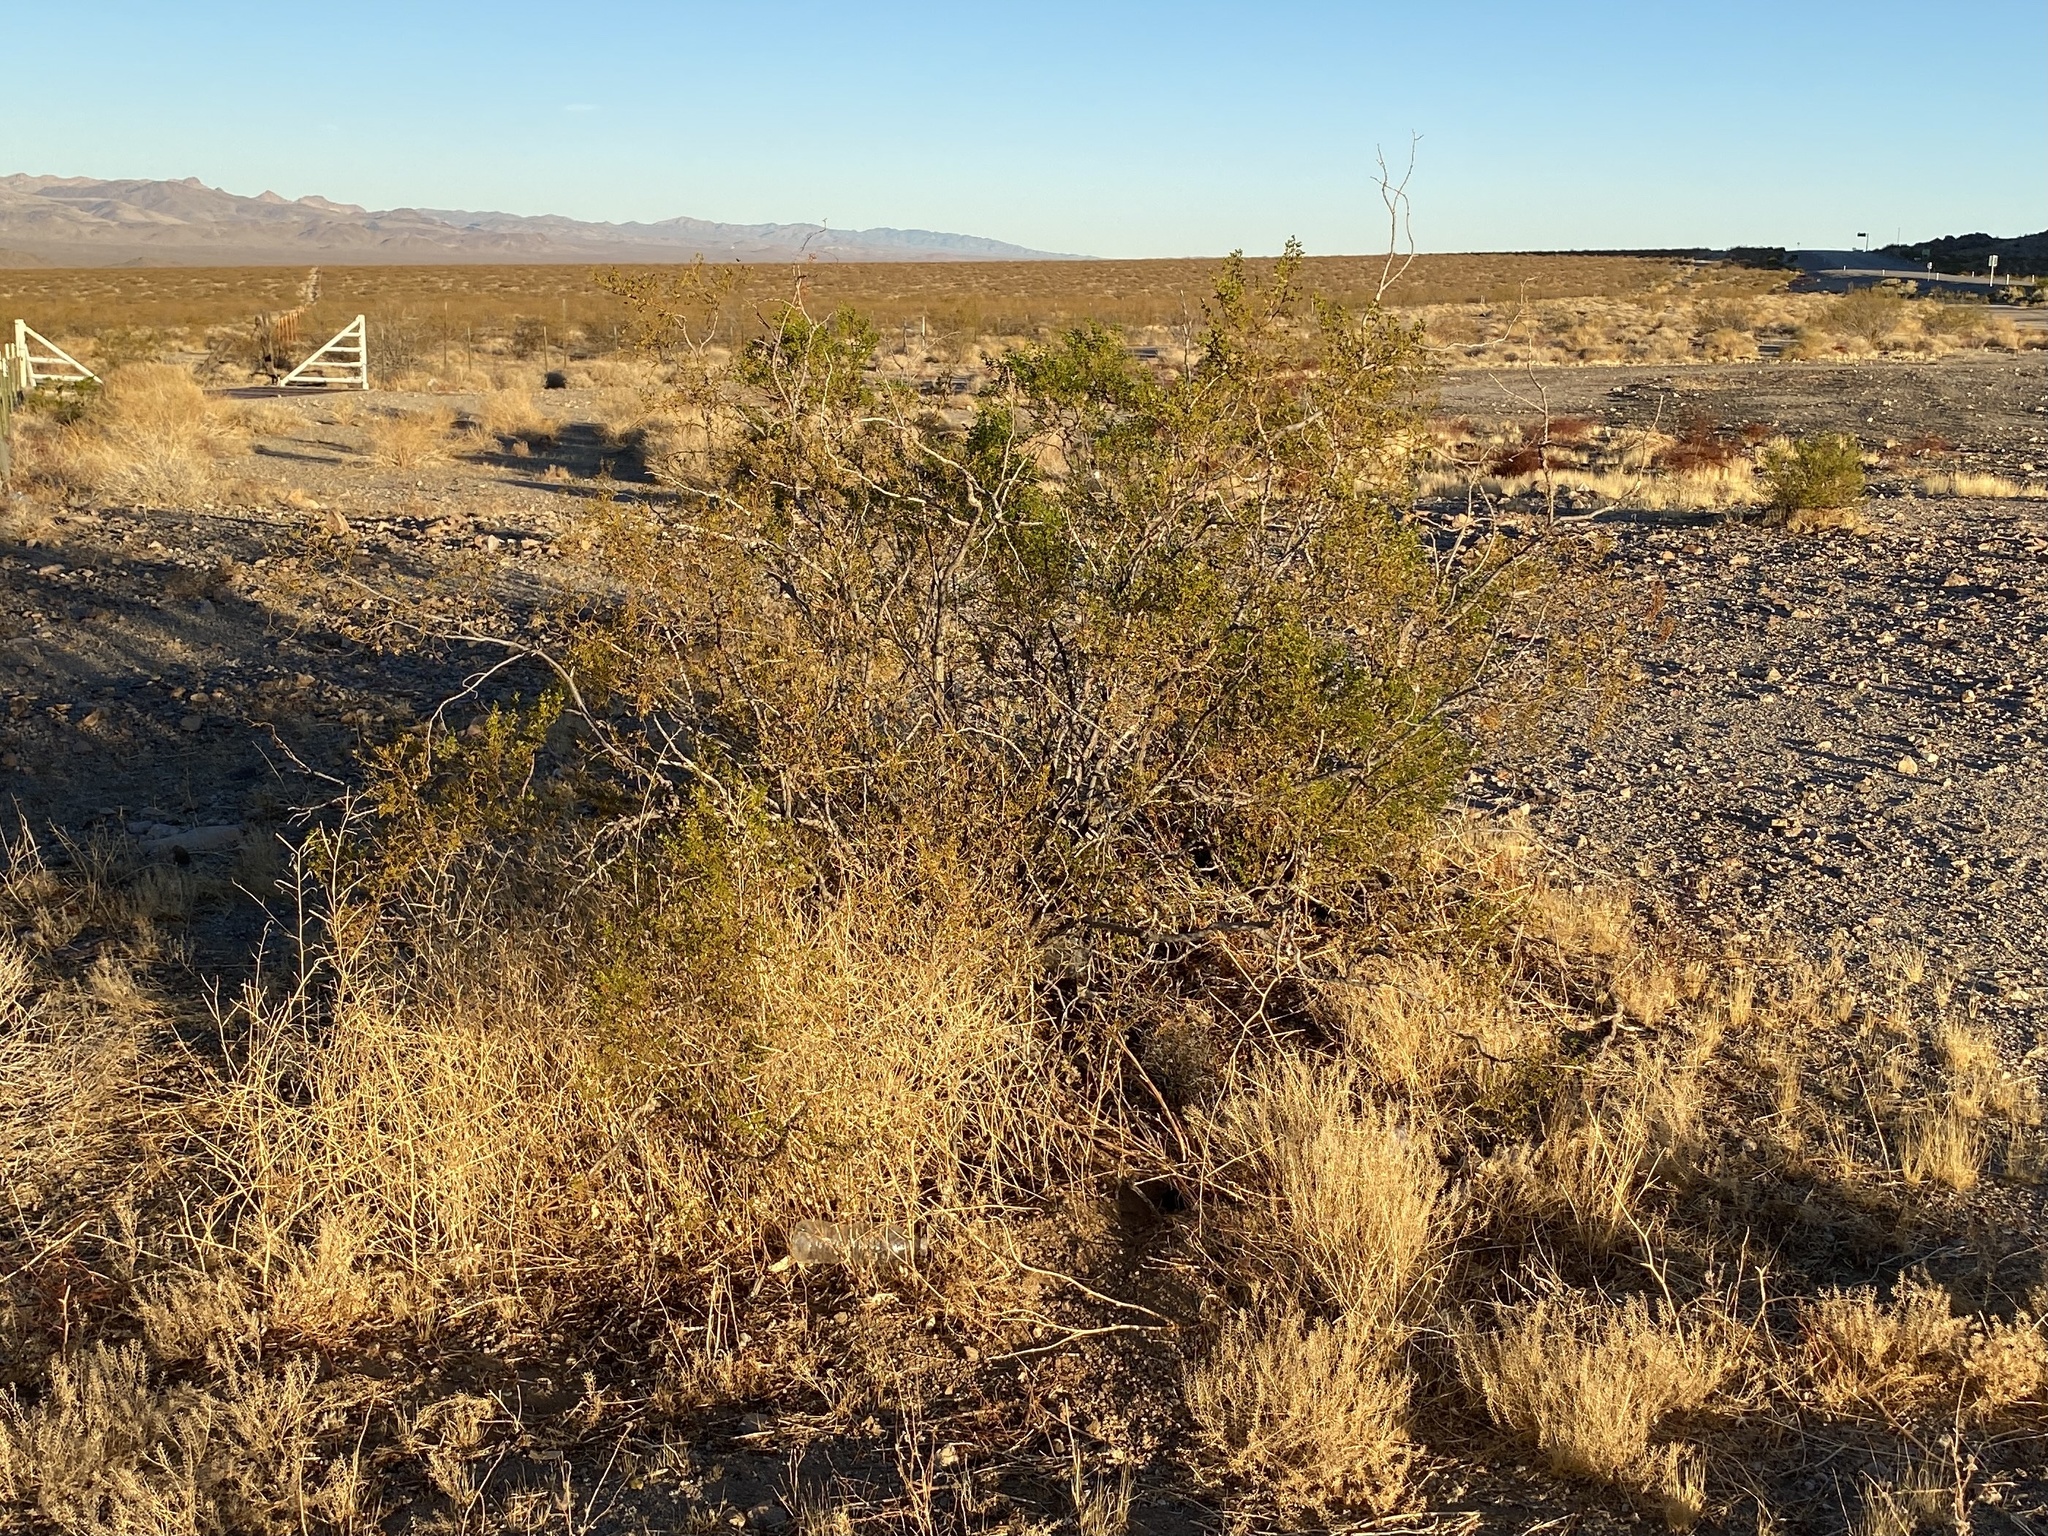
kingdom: Plantae
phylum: Tracheophyta
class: Magnoliopsida
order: Zygophyllales
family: Zygophyllaceae
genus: Larrea
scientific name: Larrea tridentata
